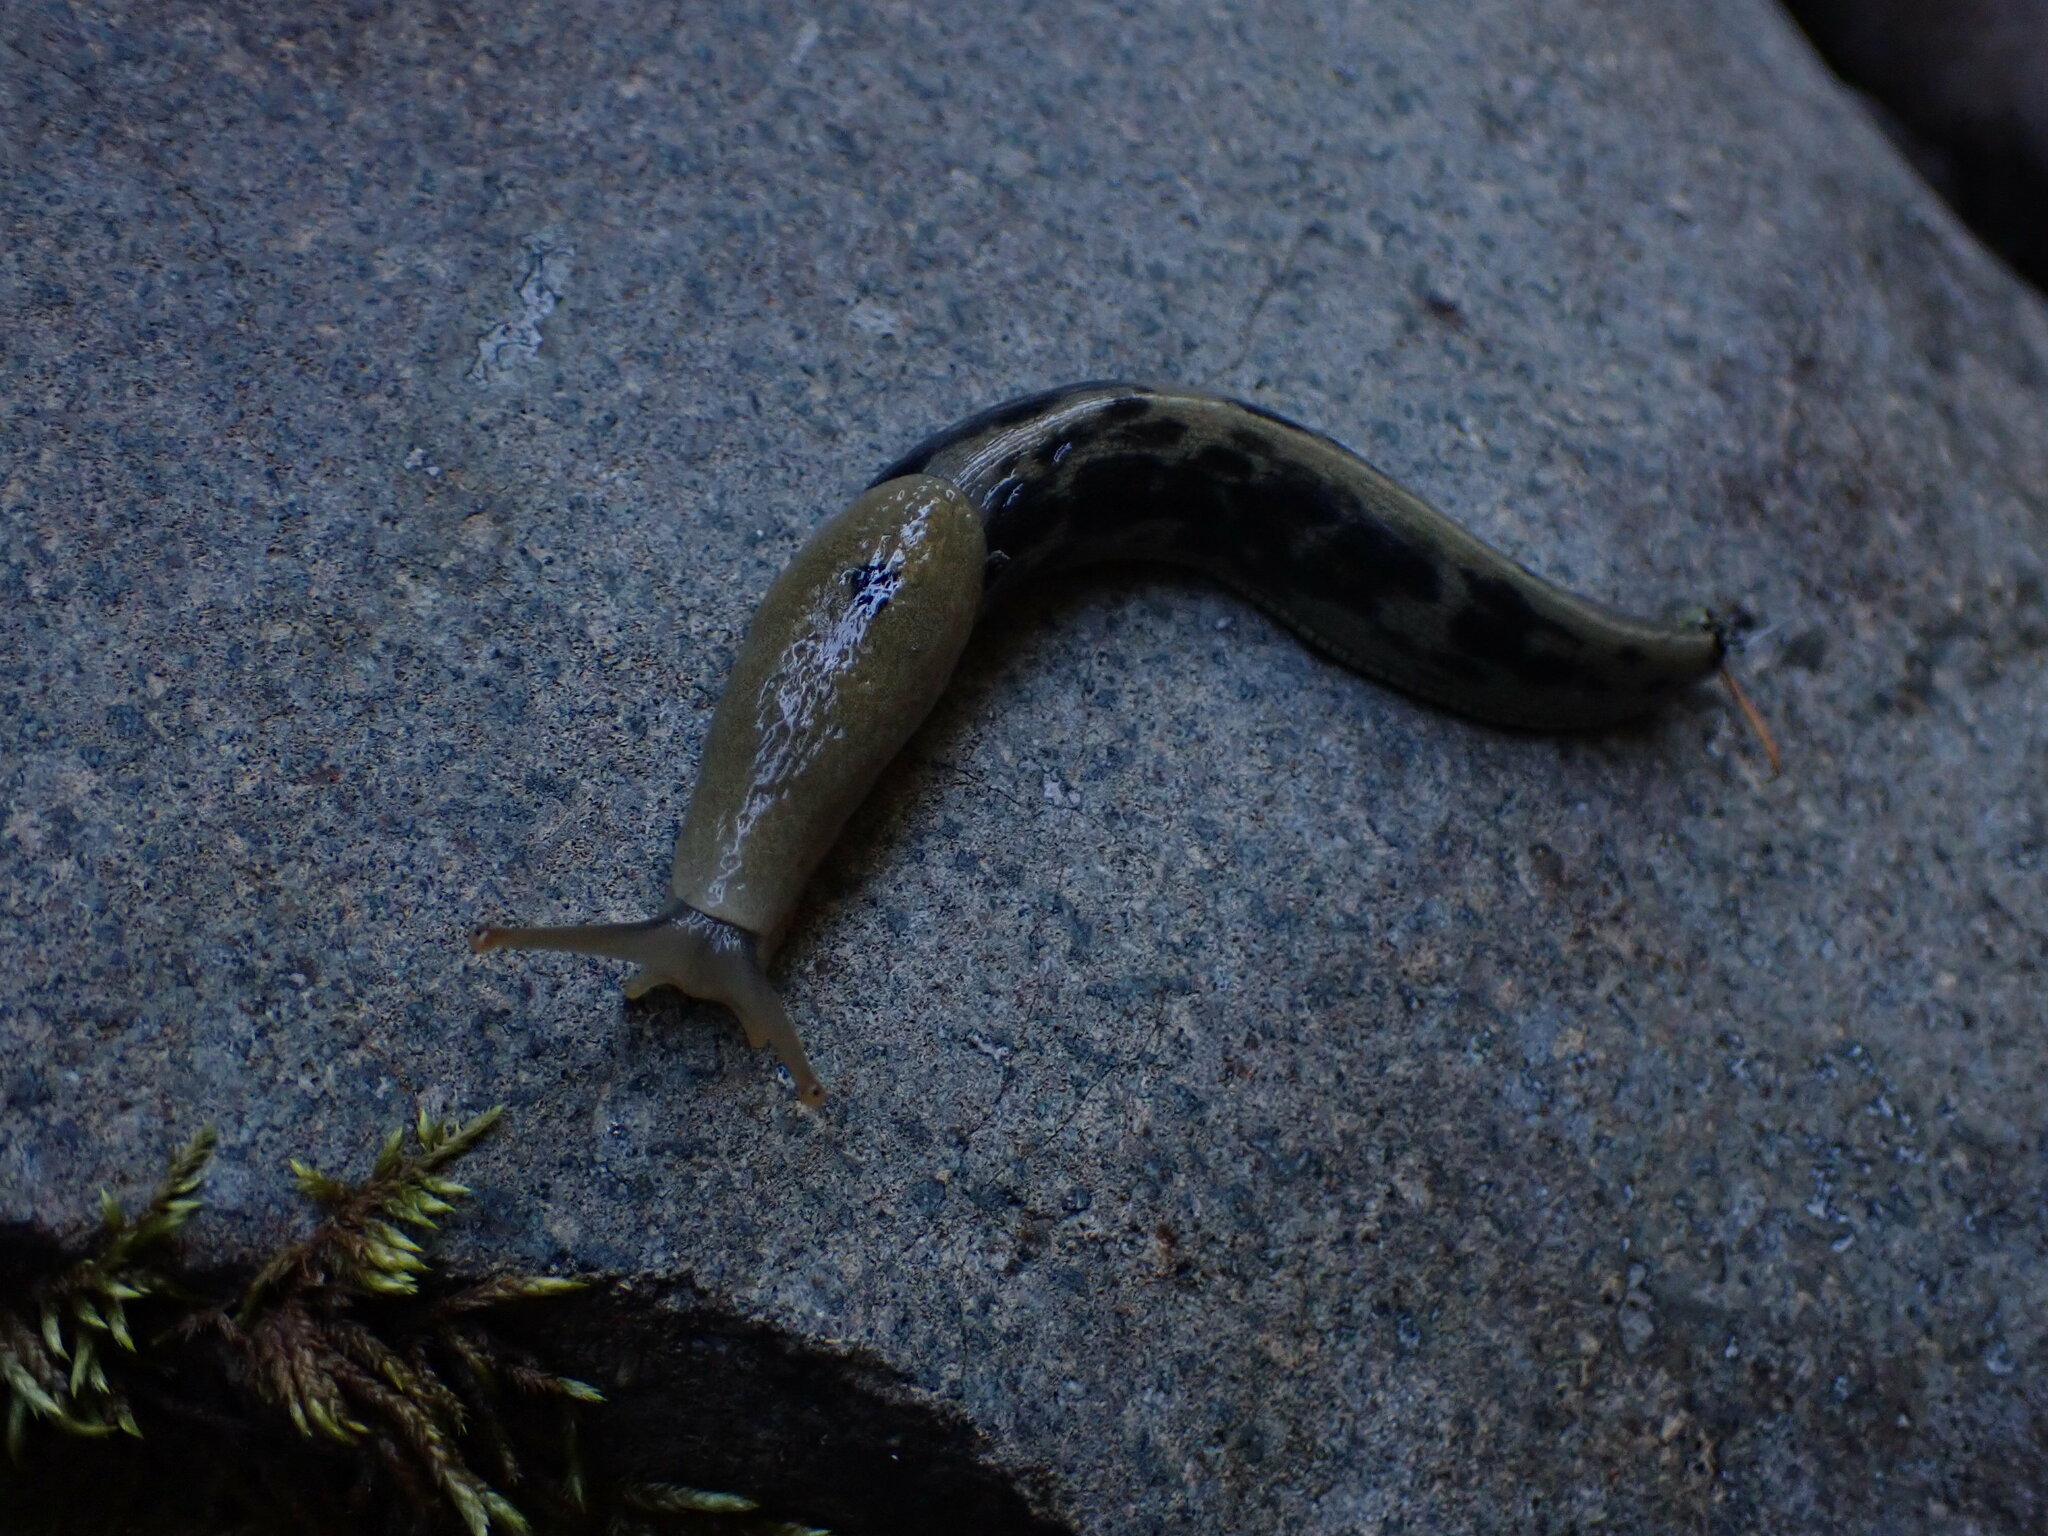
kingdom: Animalia
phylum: Mollusca
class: Gastropoda
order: Stylommatophora
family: Ariolimacidae
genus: Ariolimax
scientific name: Ariolimax columbianus
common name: Pacific banana slug
